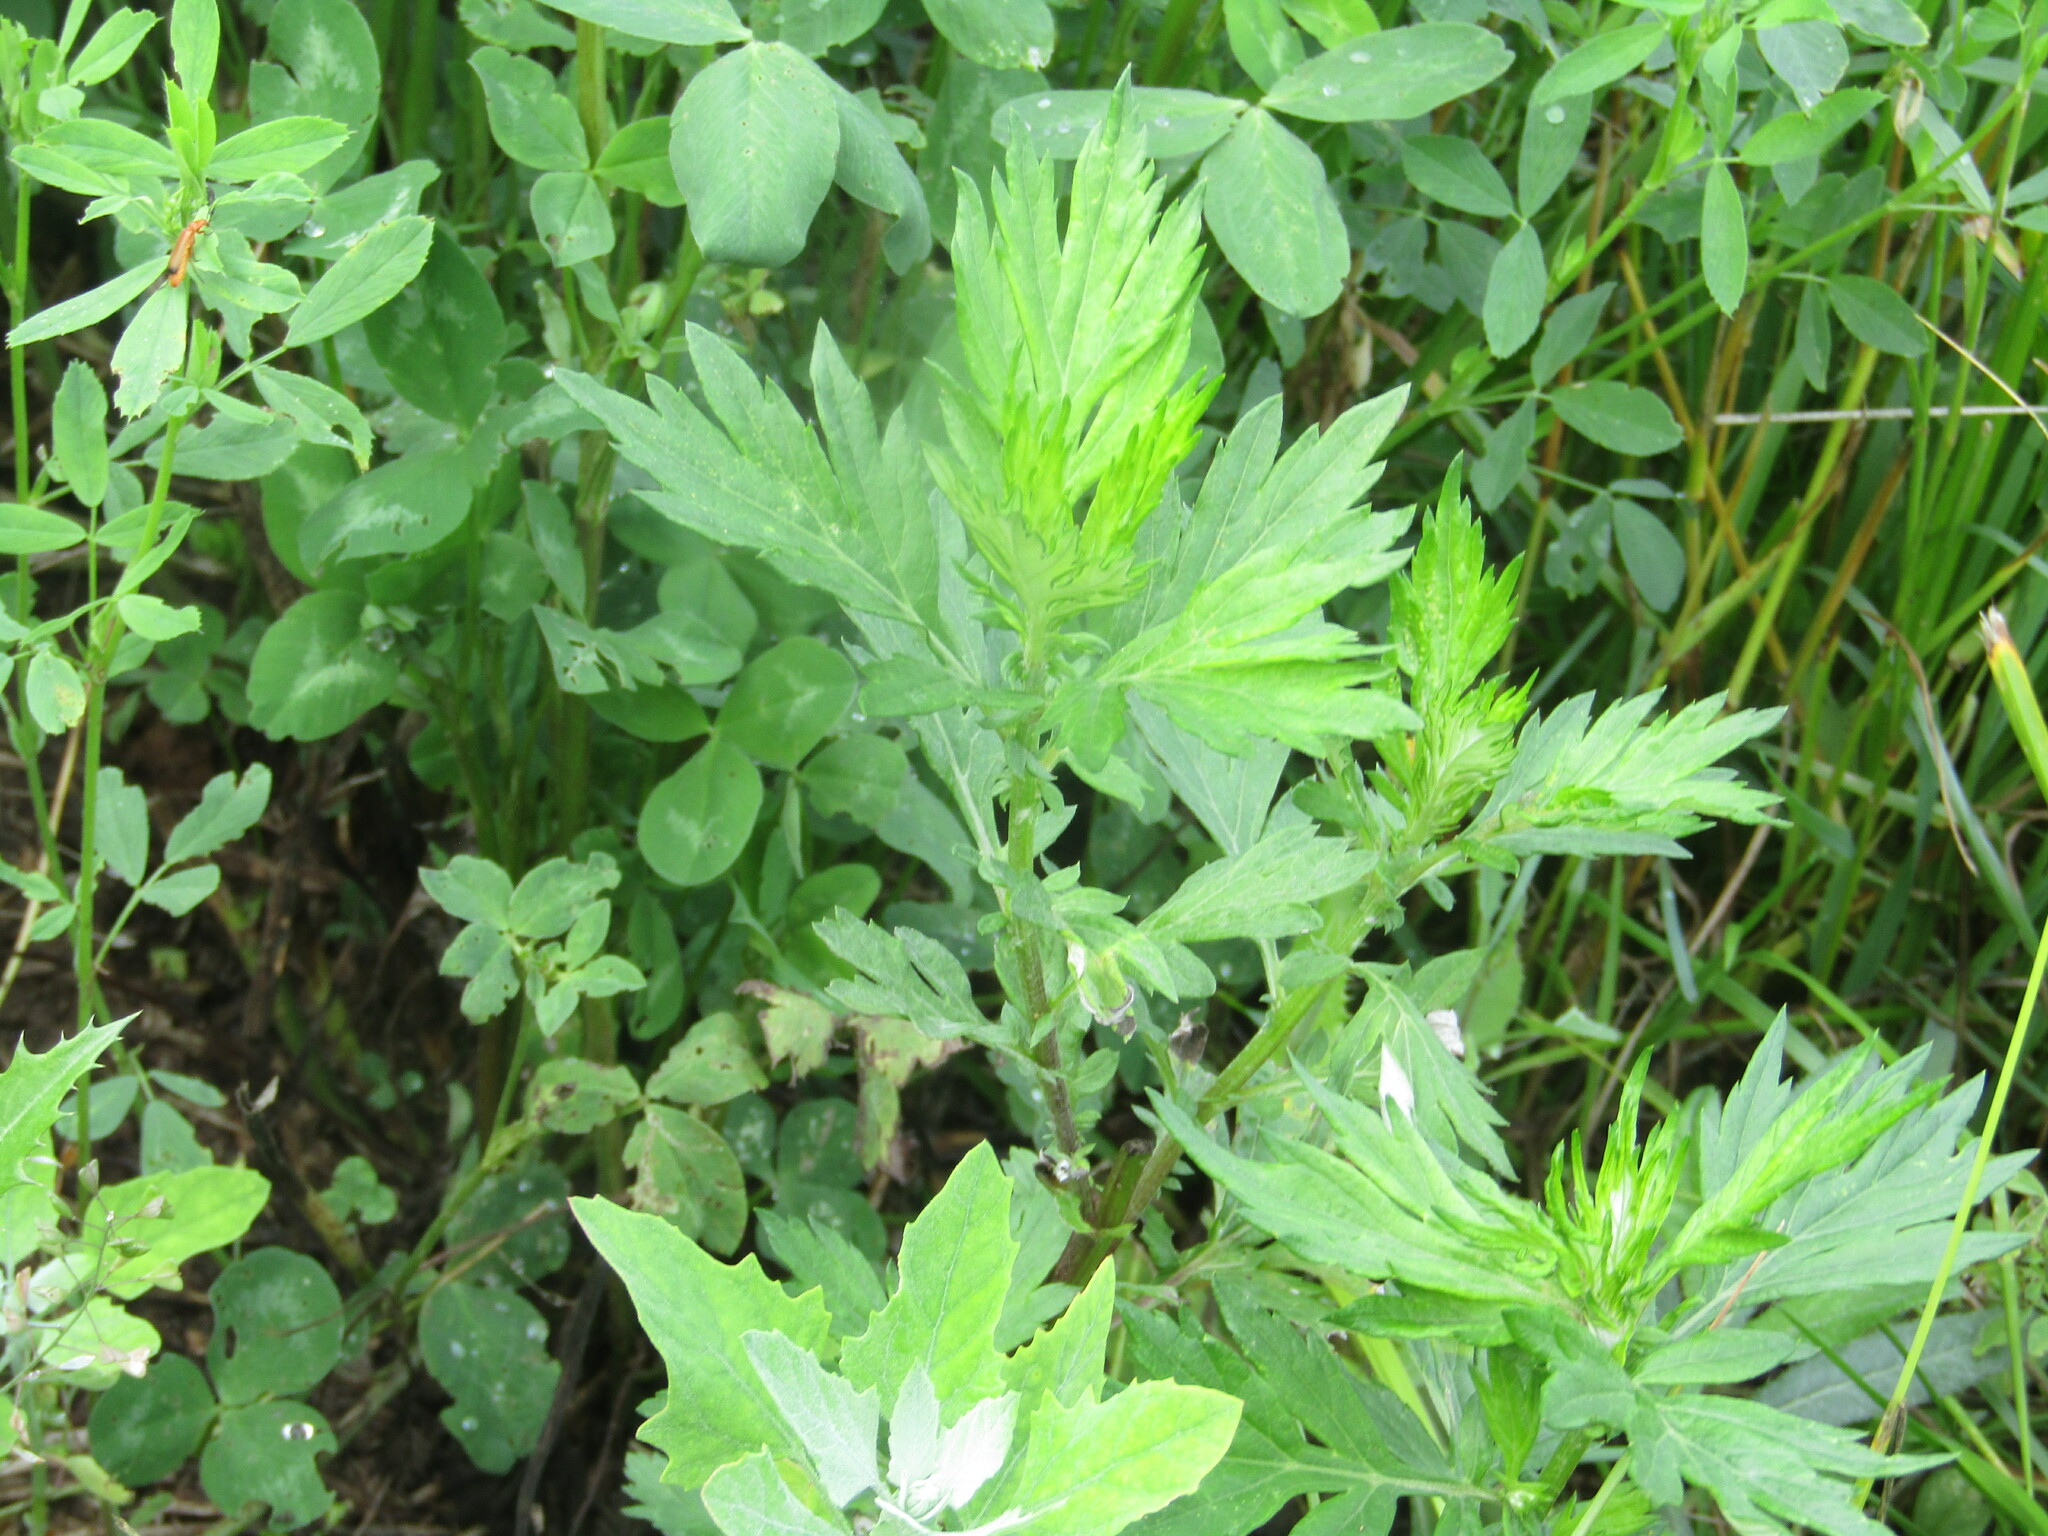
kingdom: Plantae
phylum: Tracheophyta
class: Magnoliopsida
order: Asterales
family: Asteraceae
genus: Artemisia
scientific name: Artemisia vulgaris
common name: Mugwort
